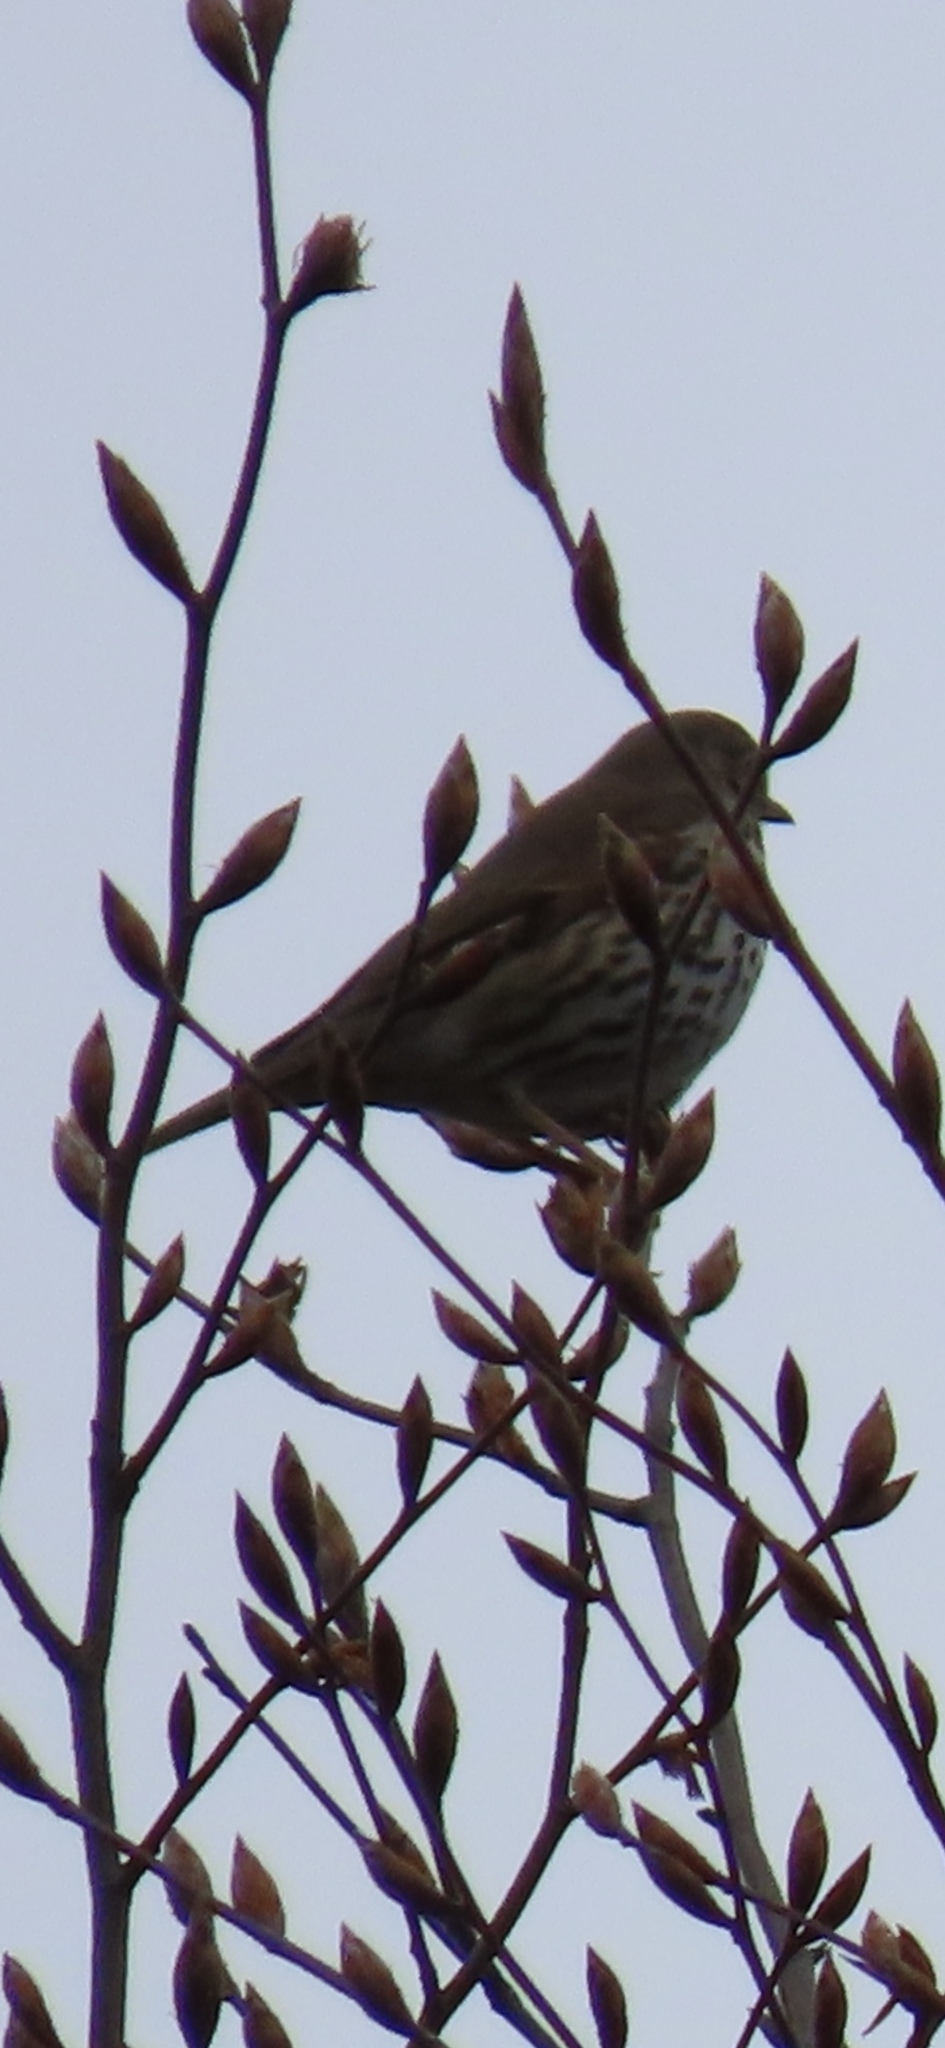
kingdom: Animalia
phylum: Chordata
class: Aves
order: Passeriformes
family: Turdidae
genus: Turdus
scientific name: Turdus philomelos
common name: Song thrush
